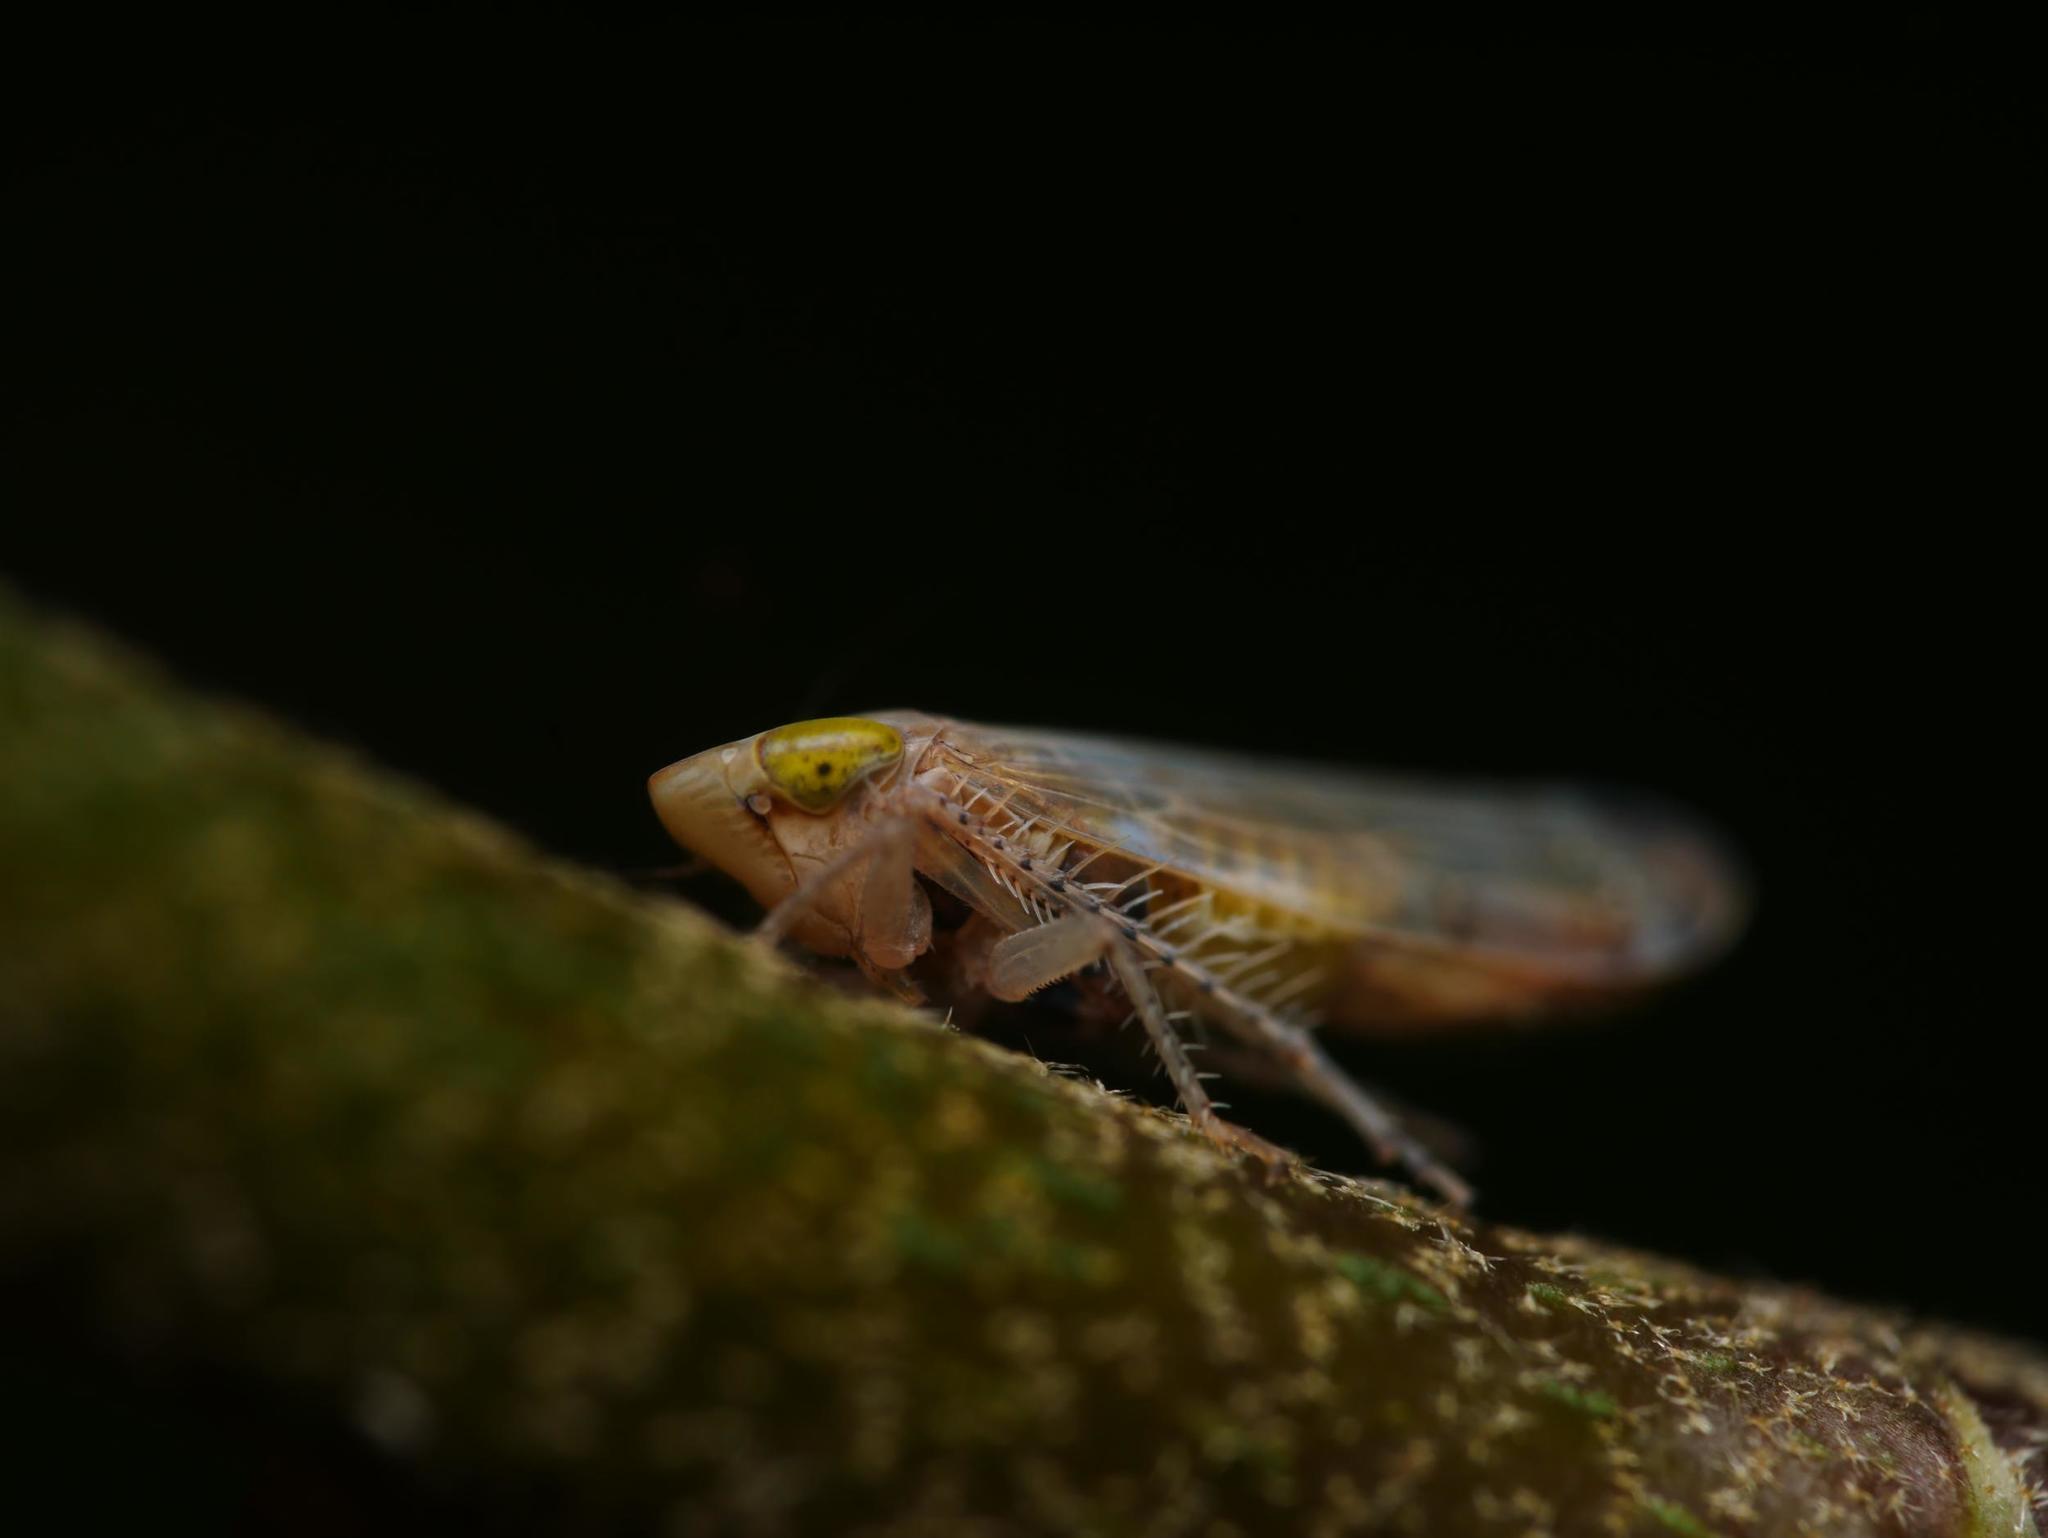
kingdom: Animalia
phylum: Arthropoda
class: Insecta
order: Hemiptera
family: Cicadellidae
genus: Synophropsis
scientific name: Synophropsis lauri
